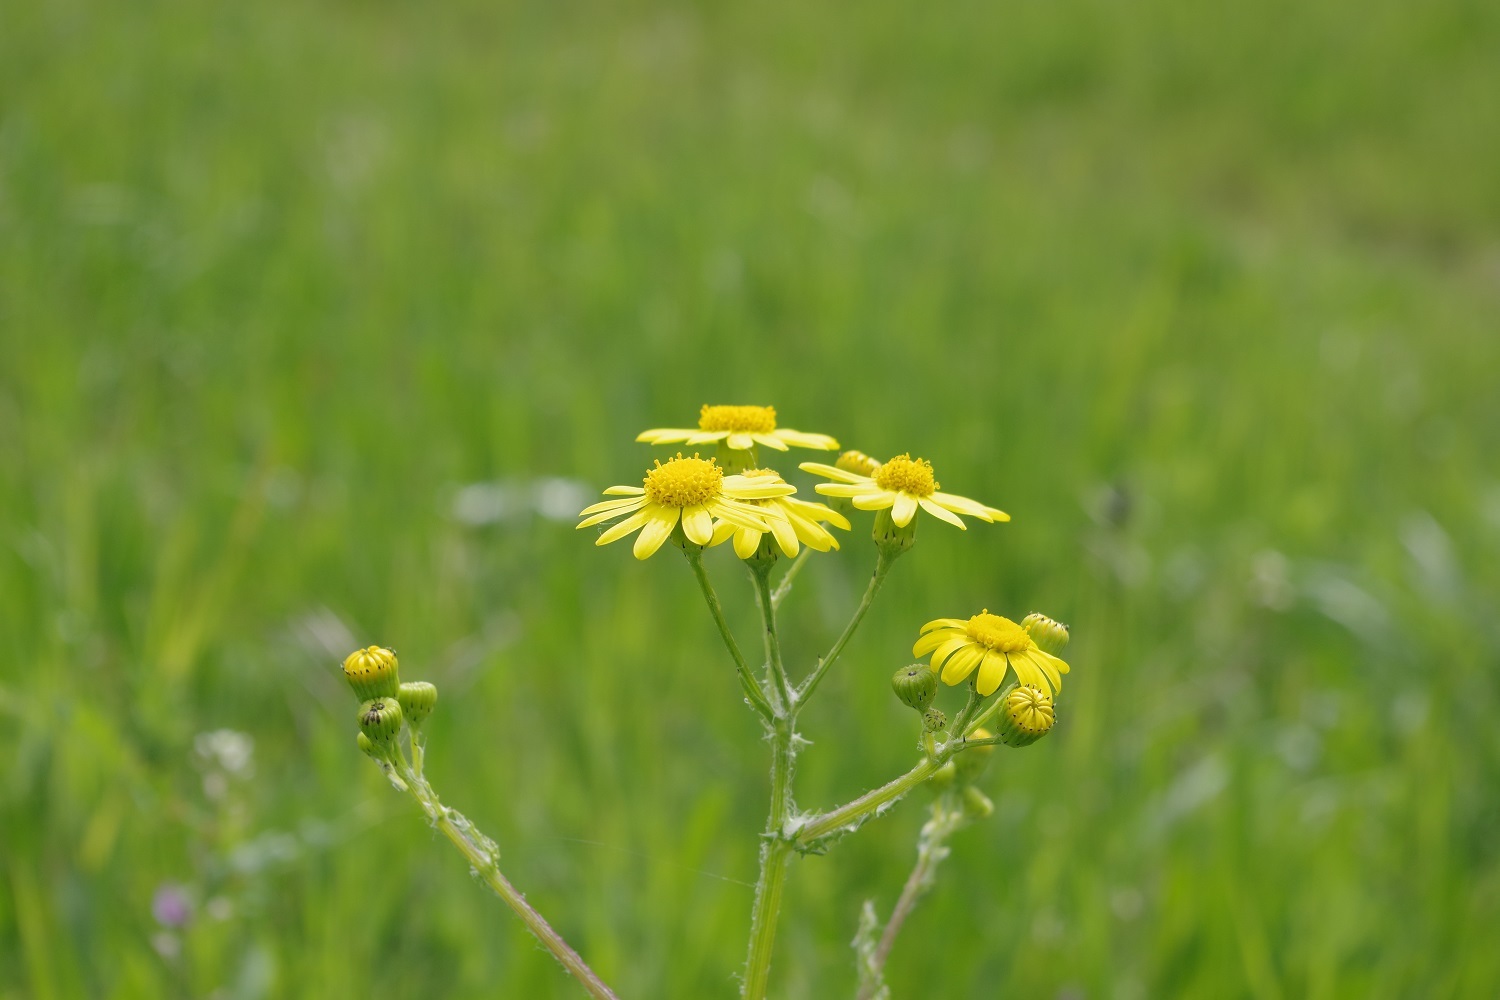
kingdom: Plantae
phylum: Tracheophyta
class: Magnoliopsida
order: Asterales
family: Asteraceae
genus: Senecio
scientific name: Senecio vernalis
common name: Eastern groundsel
